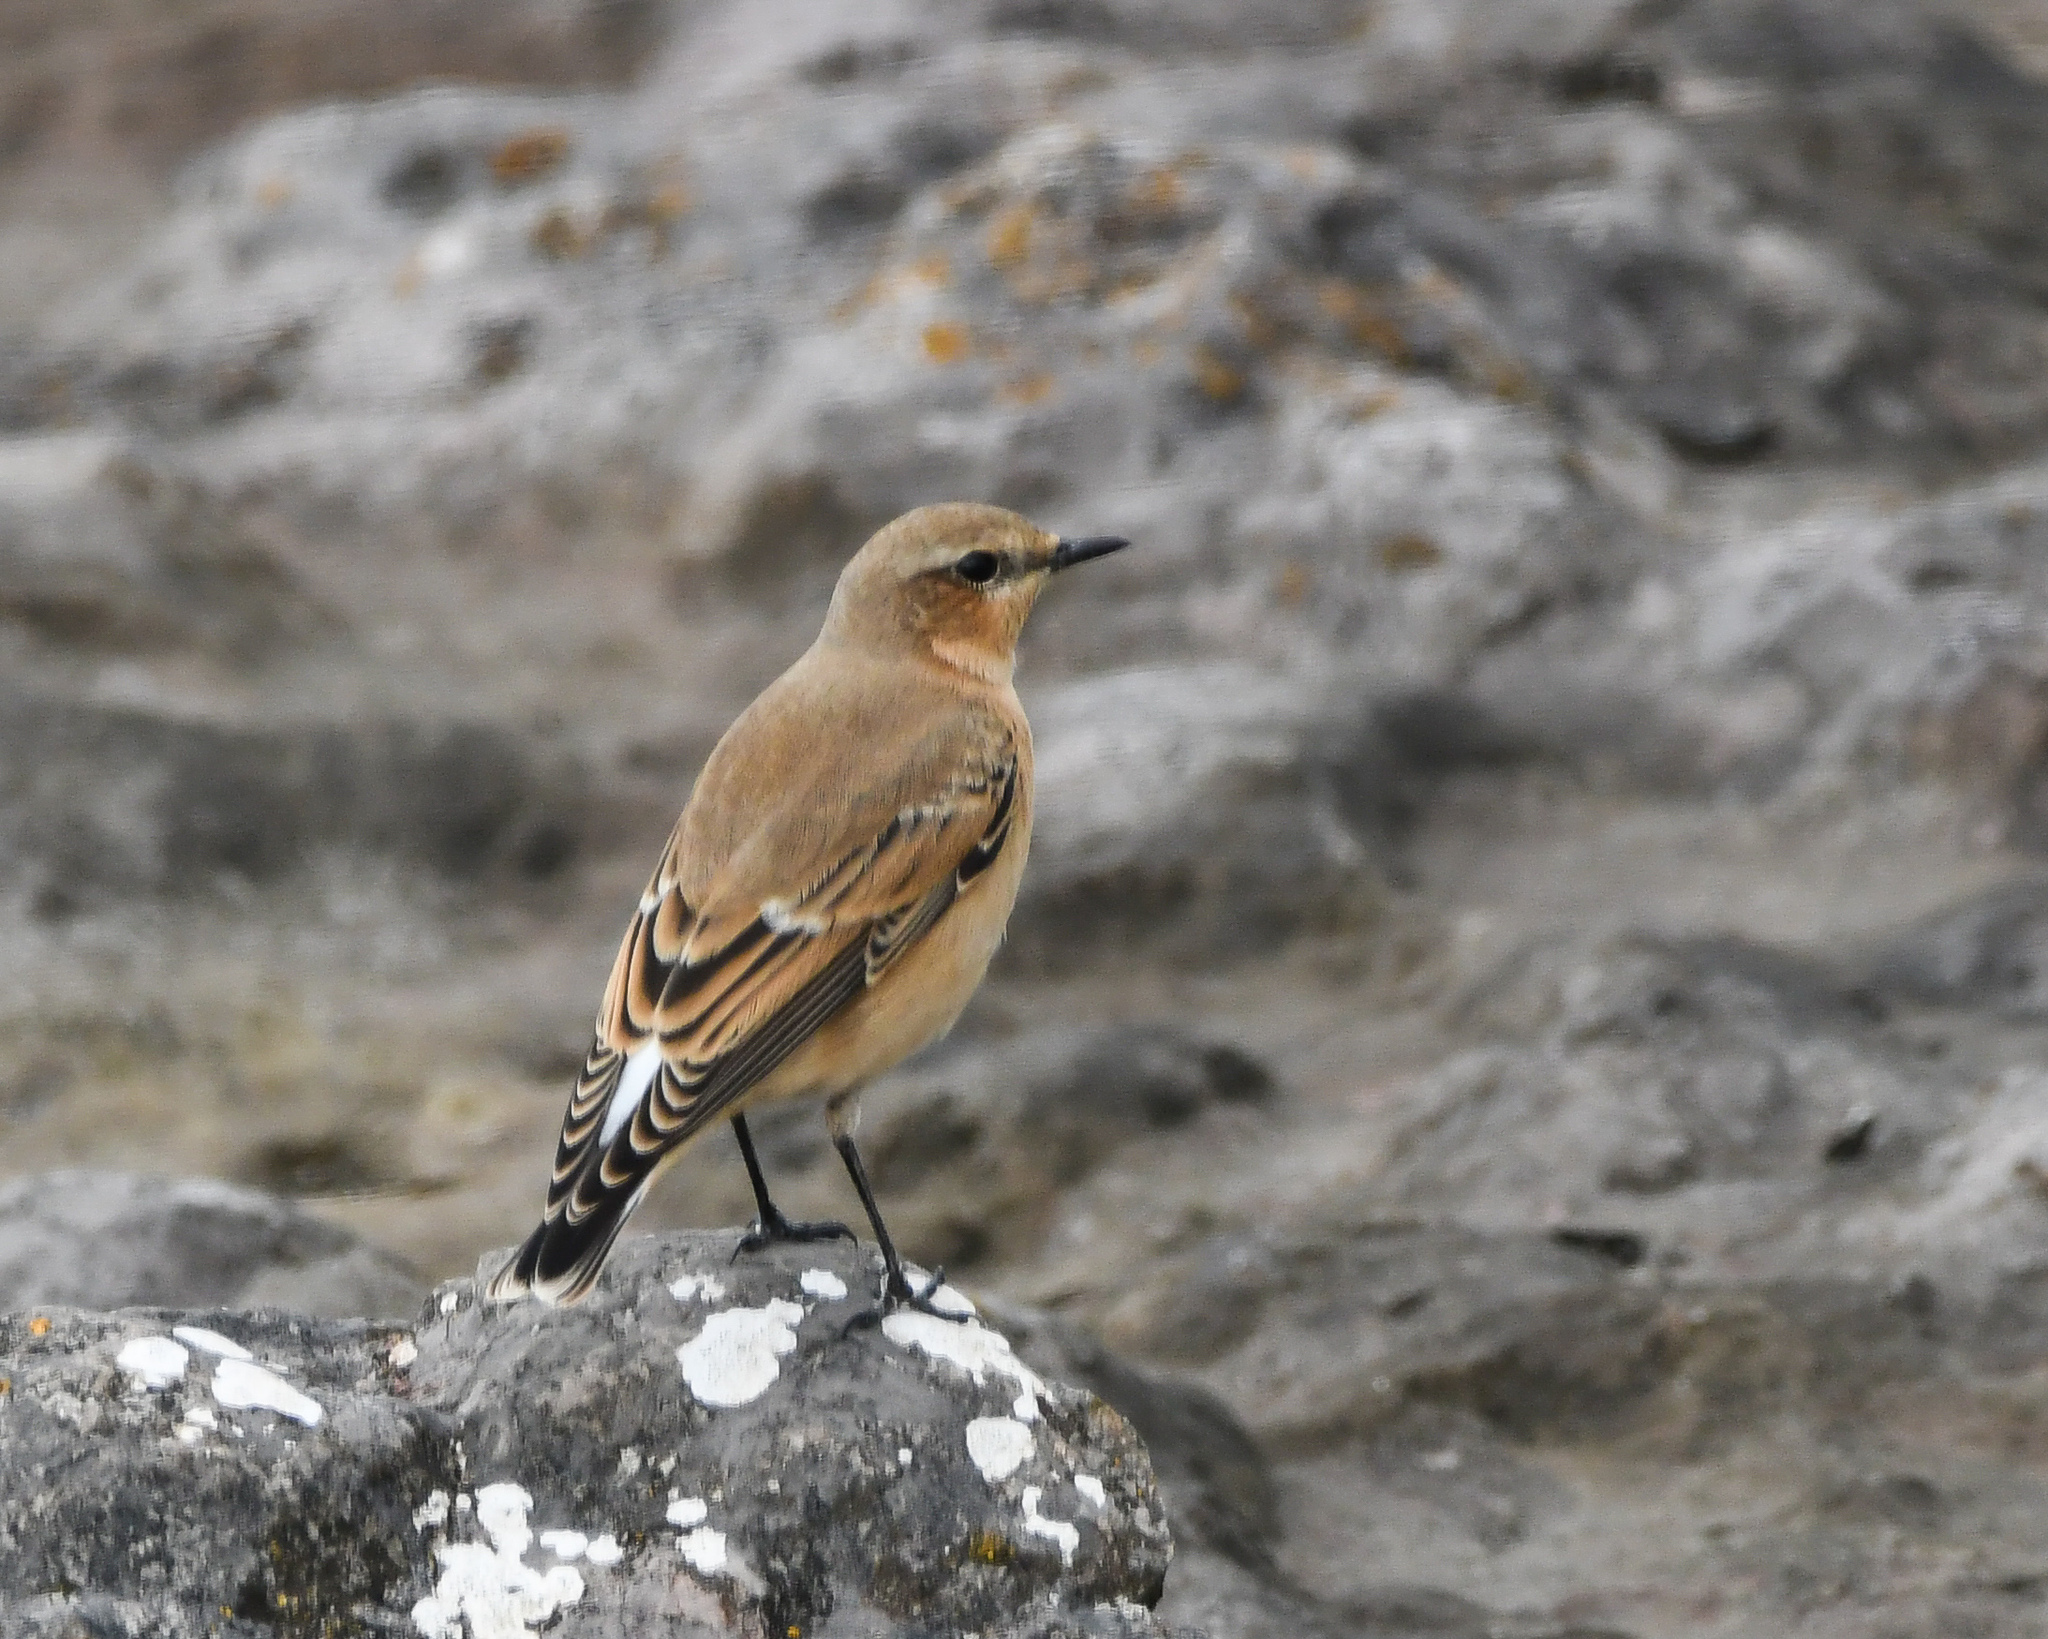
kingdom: Animalia
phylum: Chordata
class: Aves
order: Passeriformes
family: Muscicapidae
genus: Oenanthe
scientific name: Oenanthe oenanthe
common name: Northern wheatear
